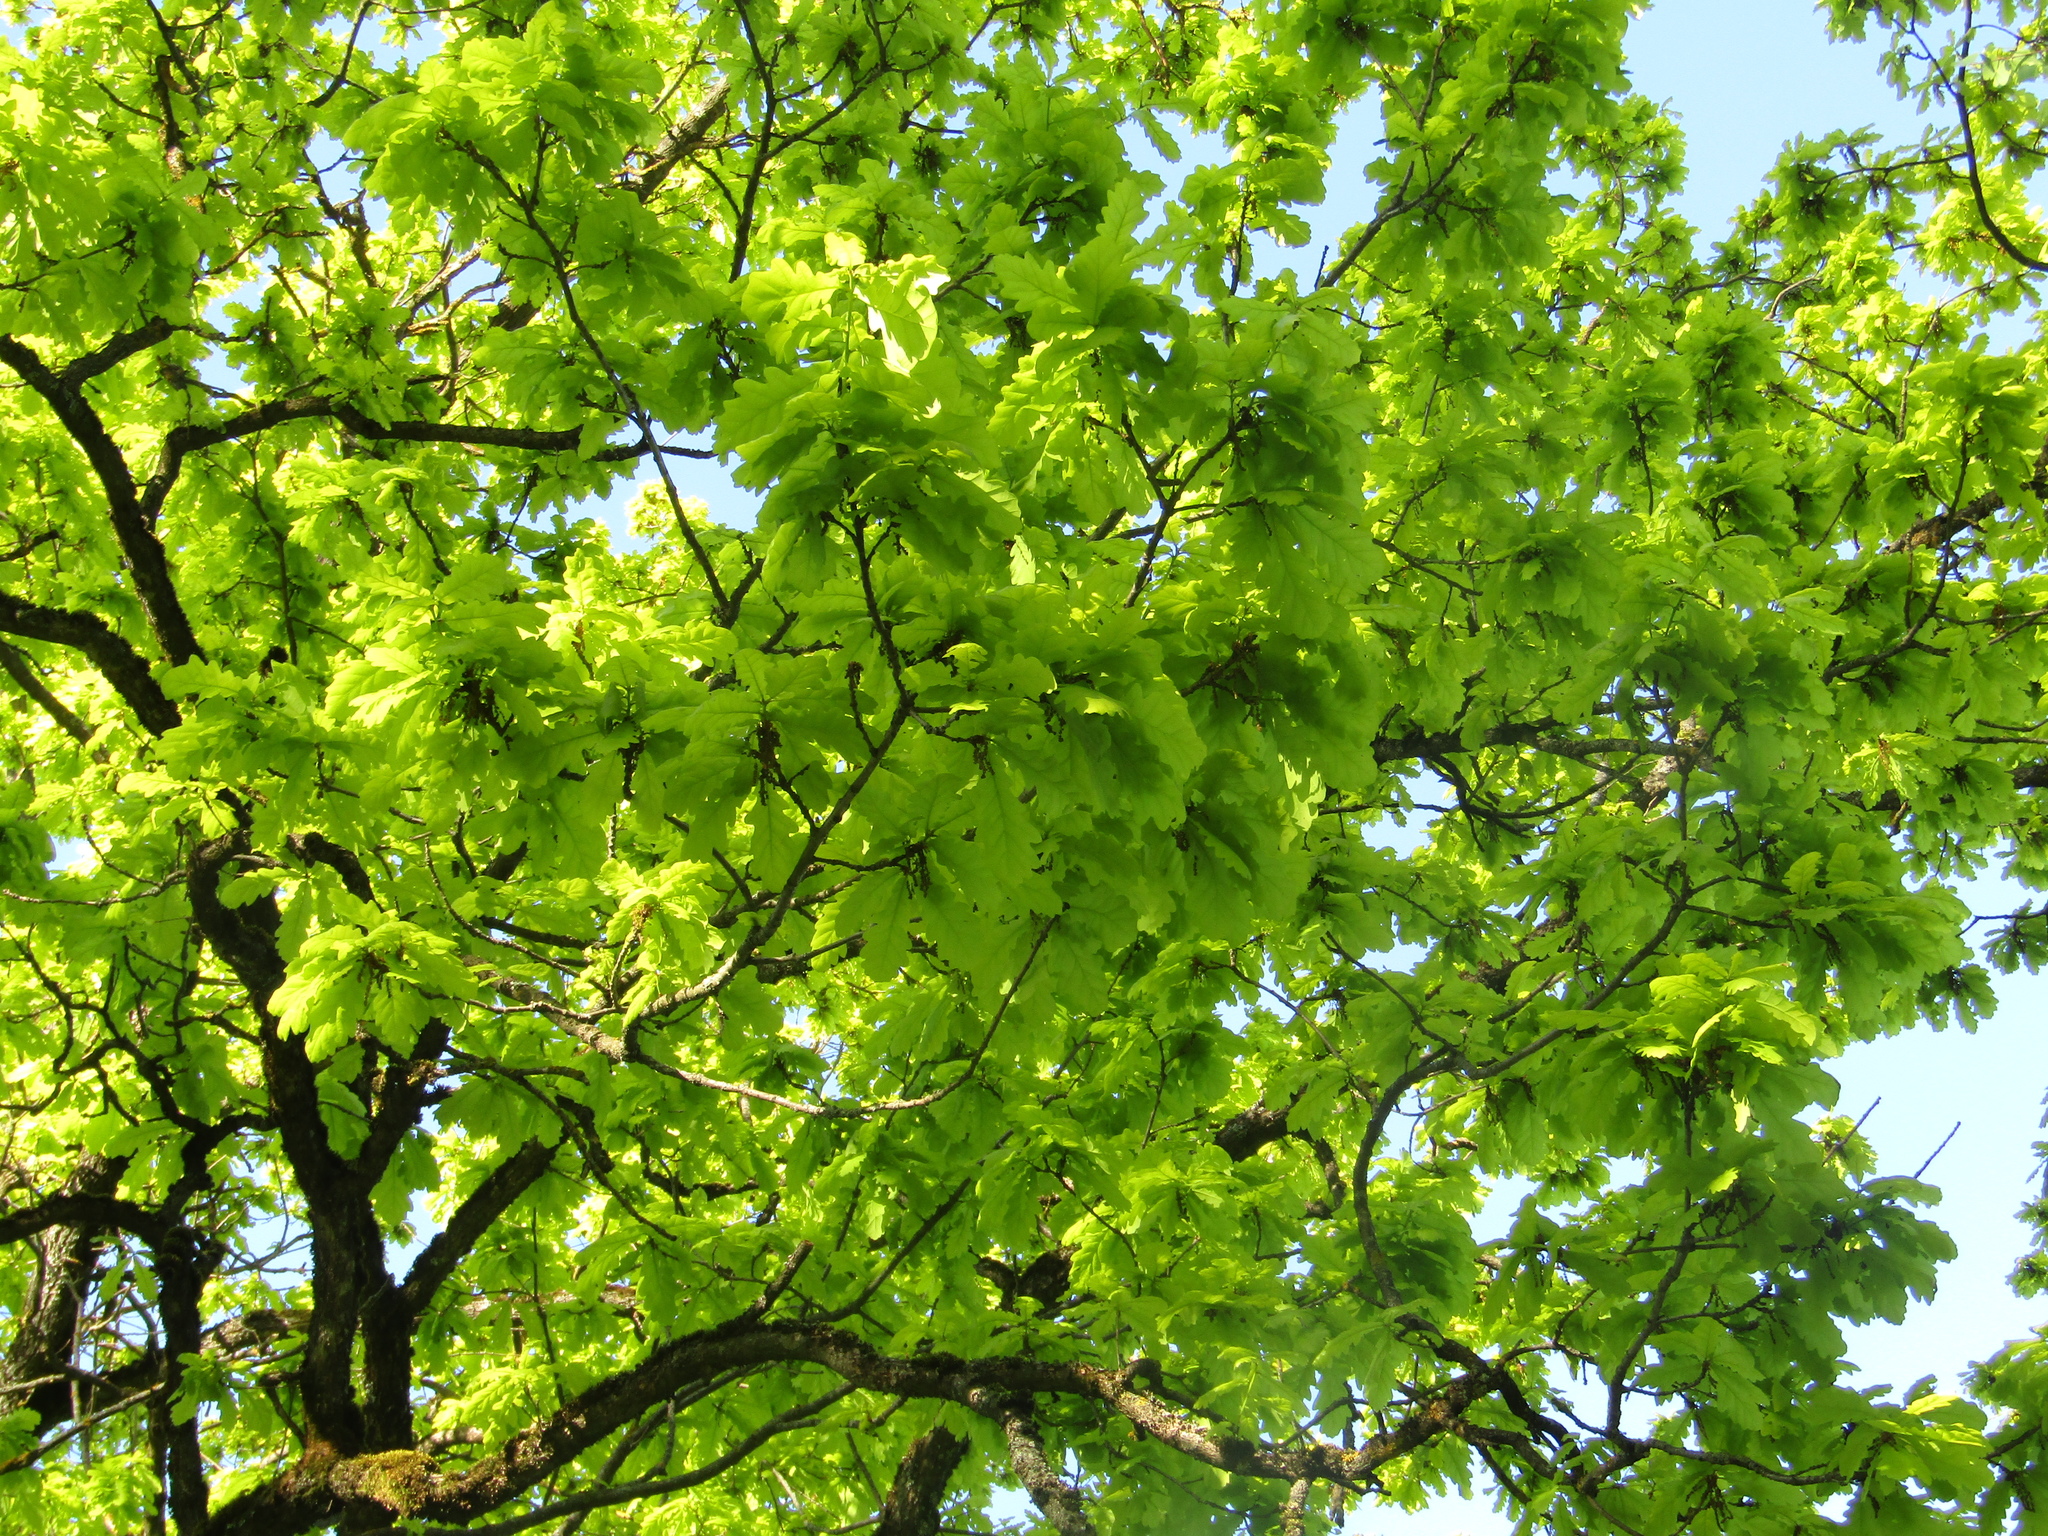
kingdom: Plantae
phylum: Tracheophyta
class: Magnoliopsida
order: Fagales
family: Fagaceae
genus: Quercus
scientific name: Quercus robur
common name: Pedunculate oak
